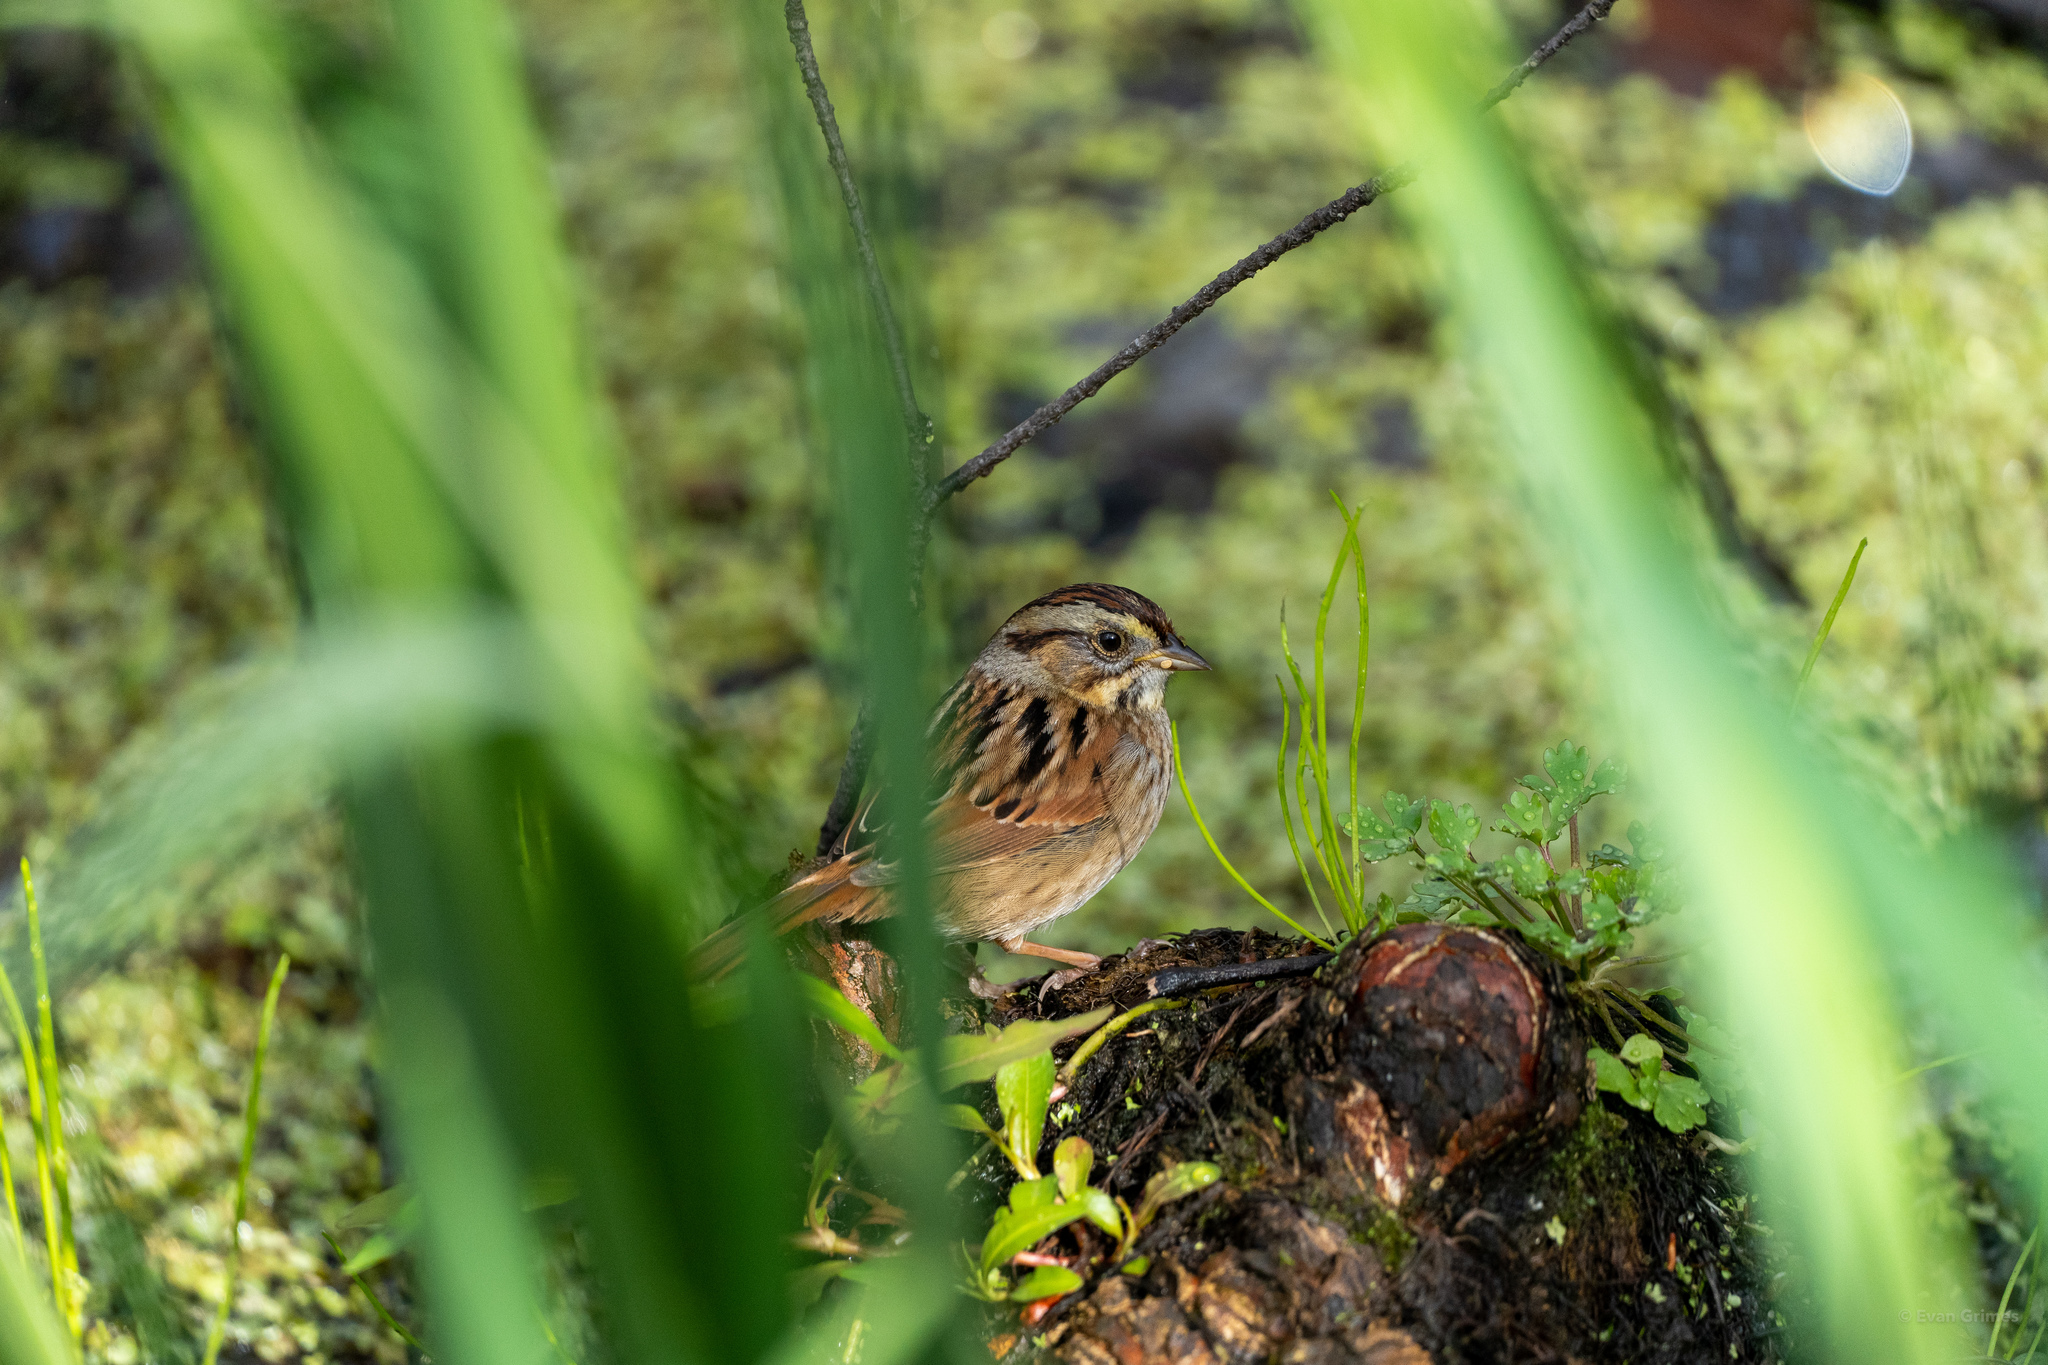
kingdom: Animalia
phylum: Chordata
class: Aves
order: Passeriformes
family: Passerellidae
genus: Melospiza
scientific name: Melospiza georgiana
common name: Swamp sparrow
